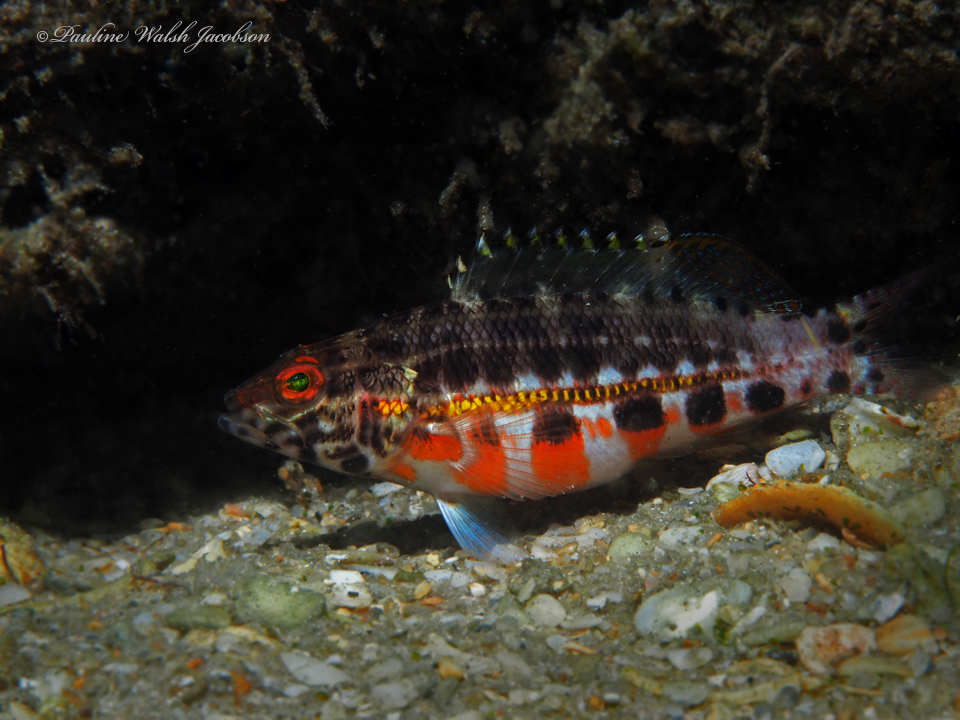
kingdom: Animalia
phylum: Chordata
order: Perciformes
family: Serranidae
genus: Serranus
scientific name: Serranus baldwini
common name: Lantern bass
